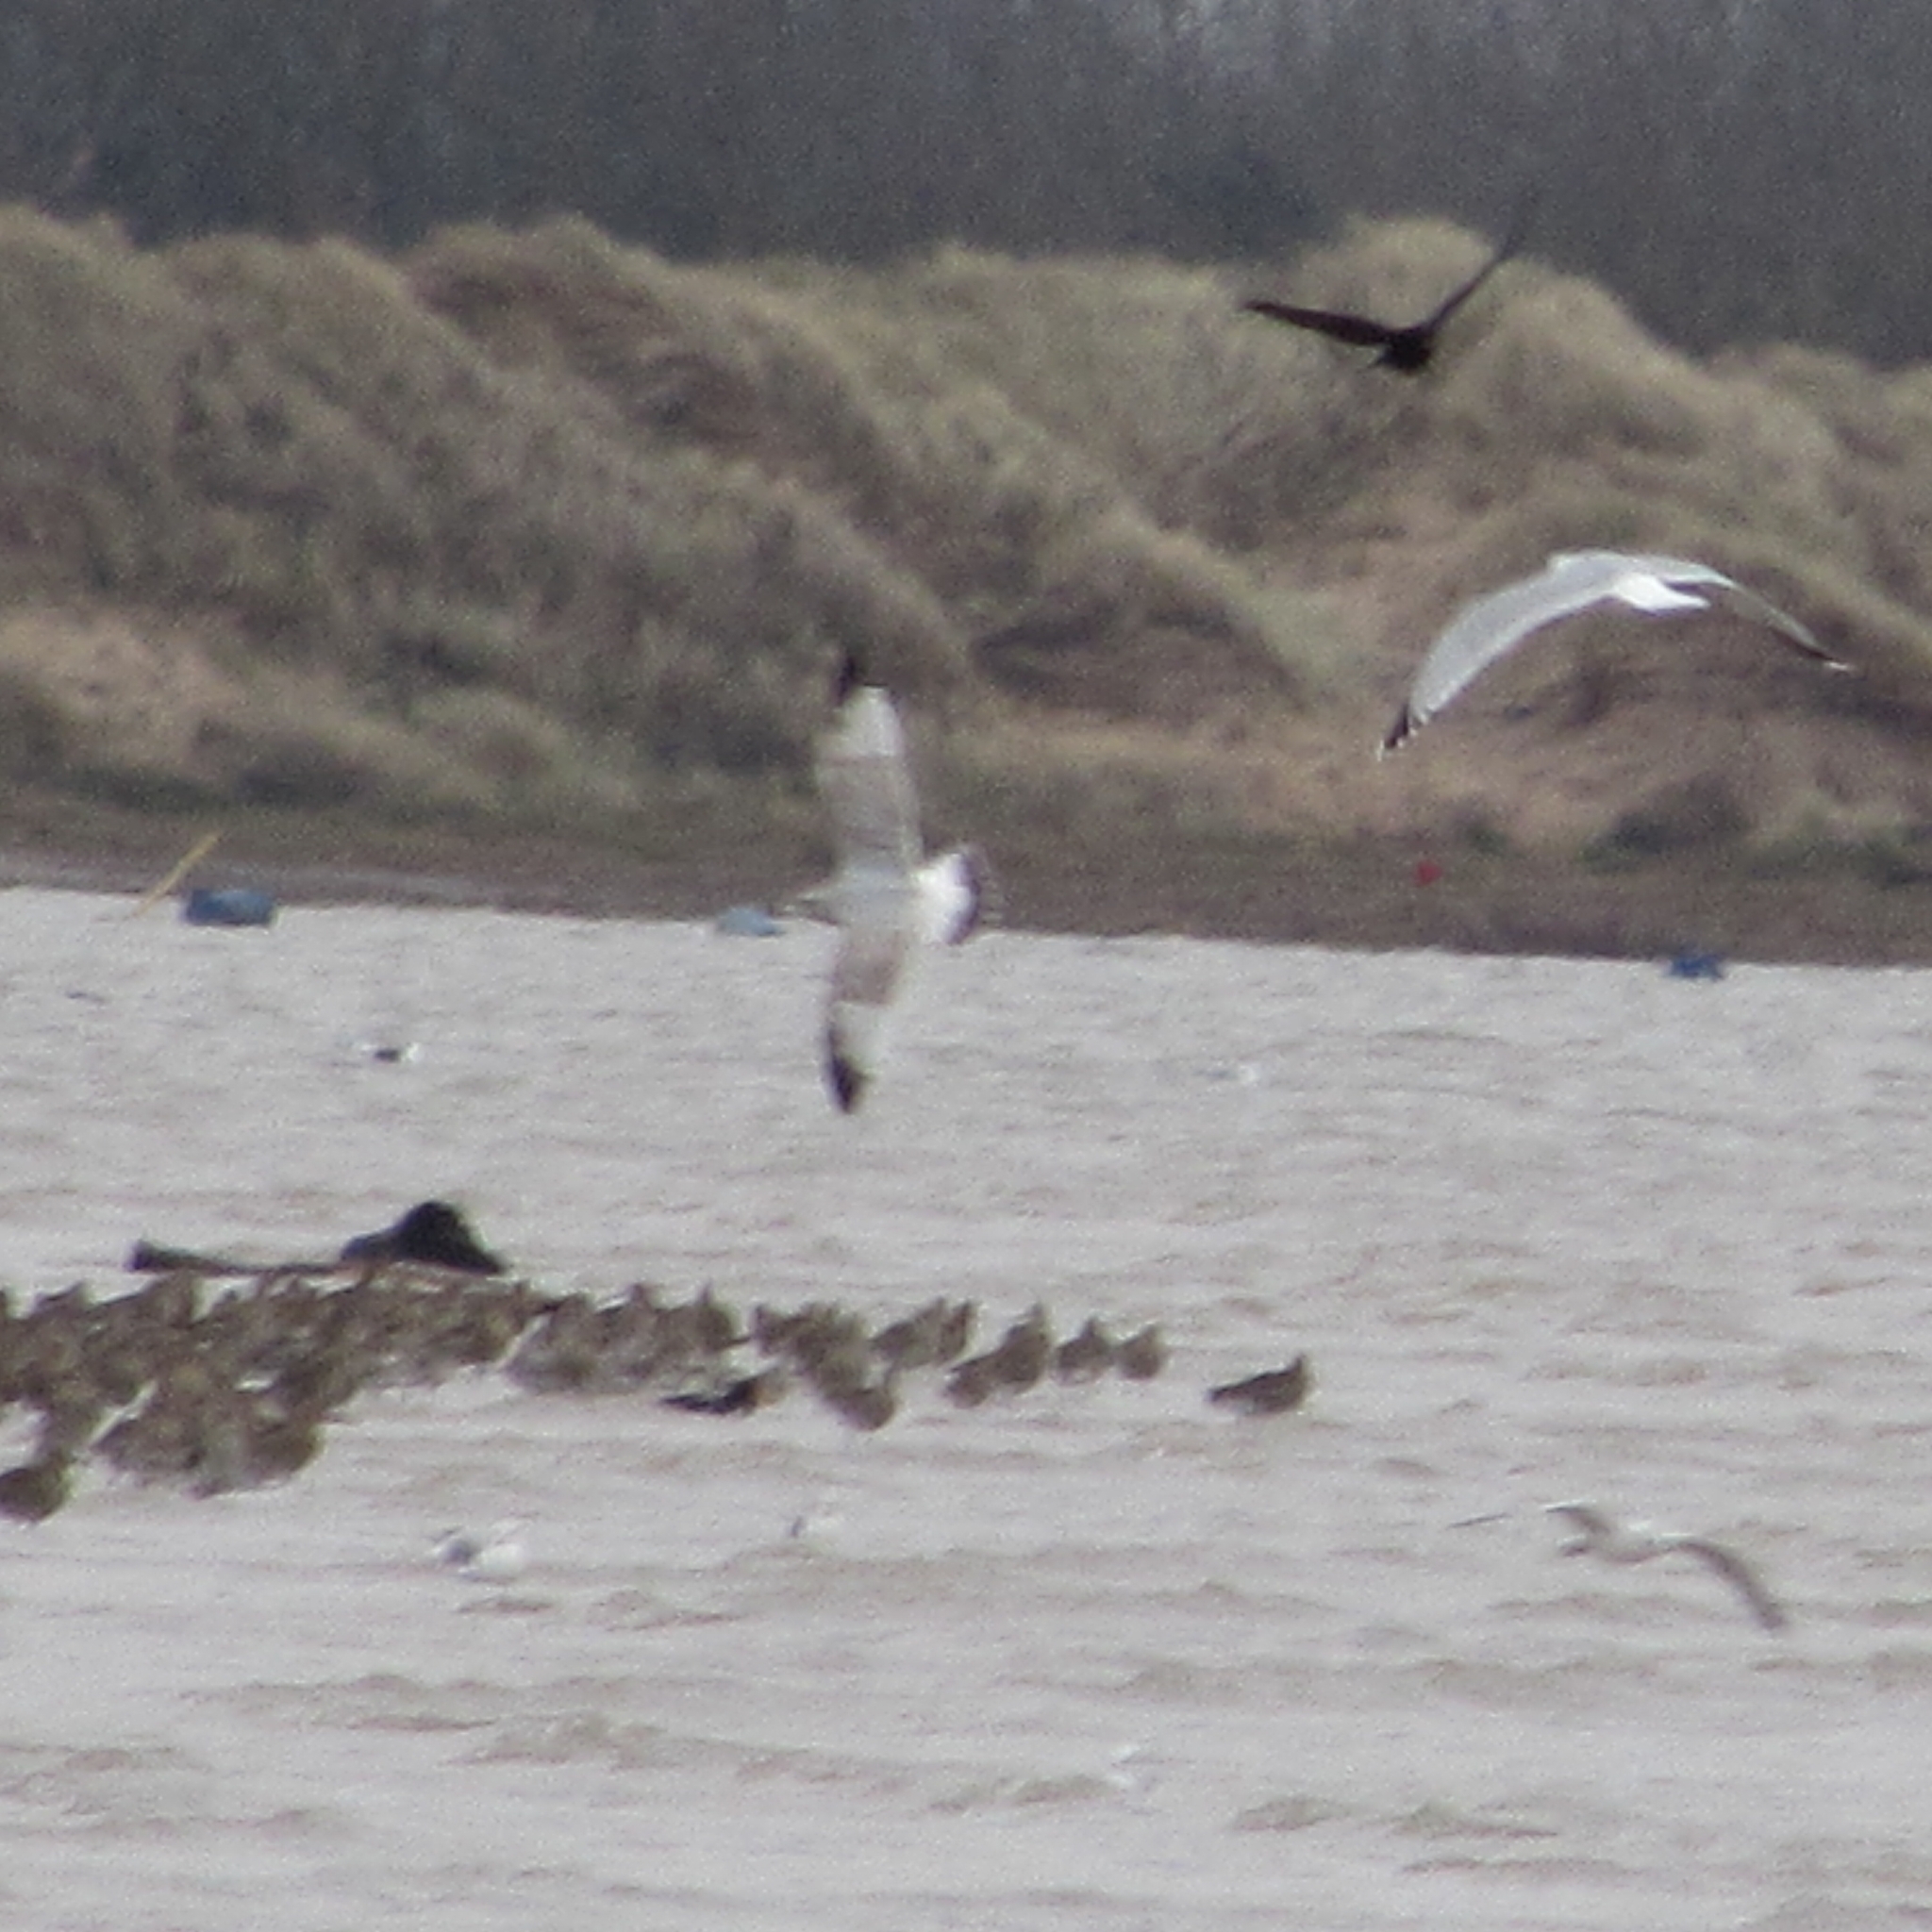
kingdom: Animalia
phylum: Chordata
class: Aves
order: Charadriiformes
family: Laridae
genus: Larus
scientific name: Larus argentatus
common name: Herring gull
